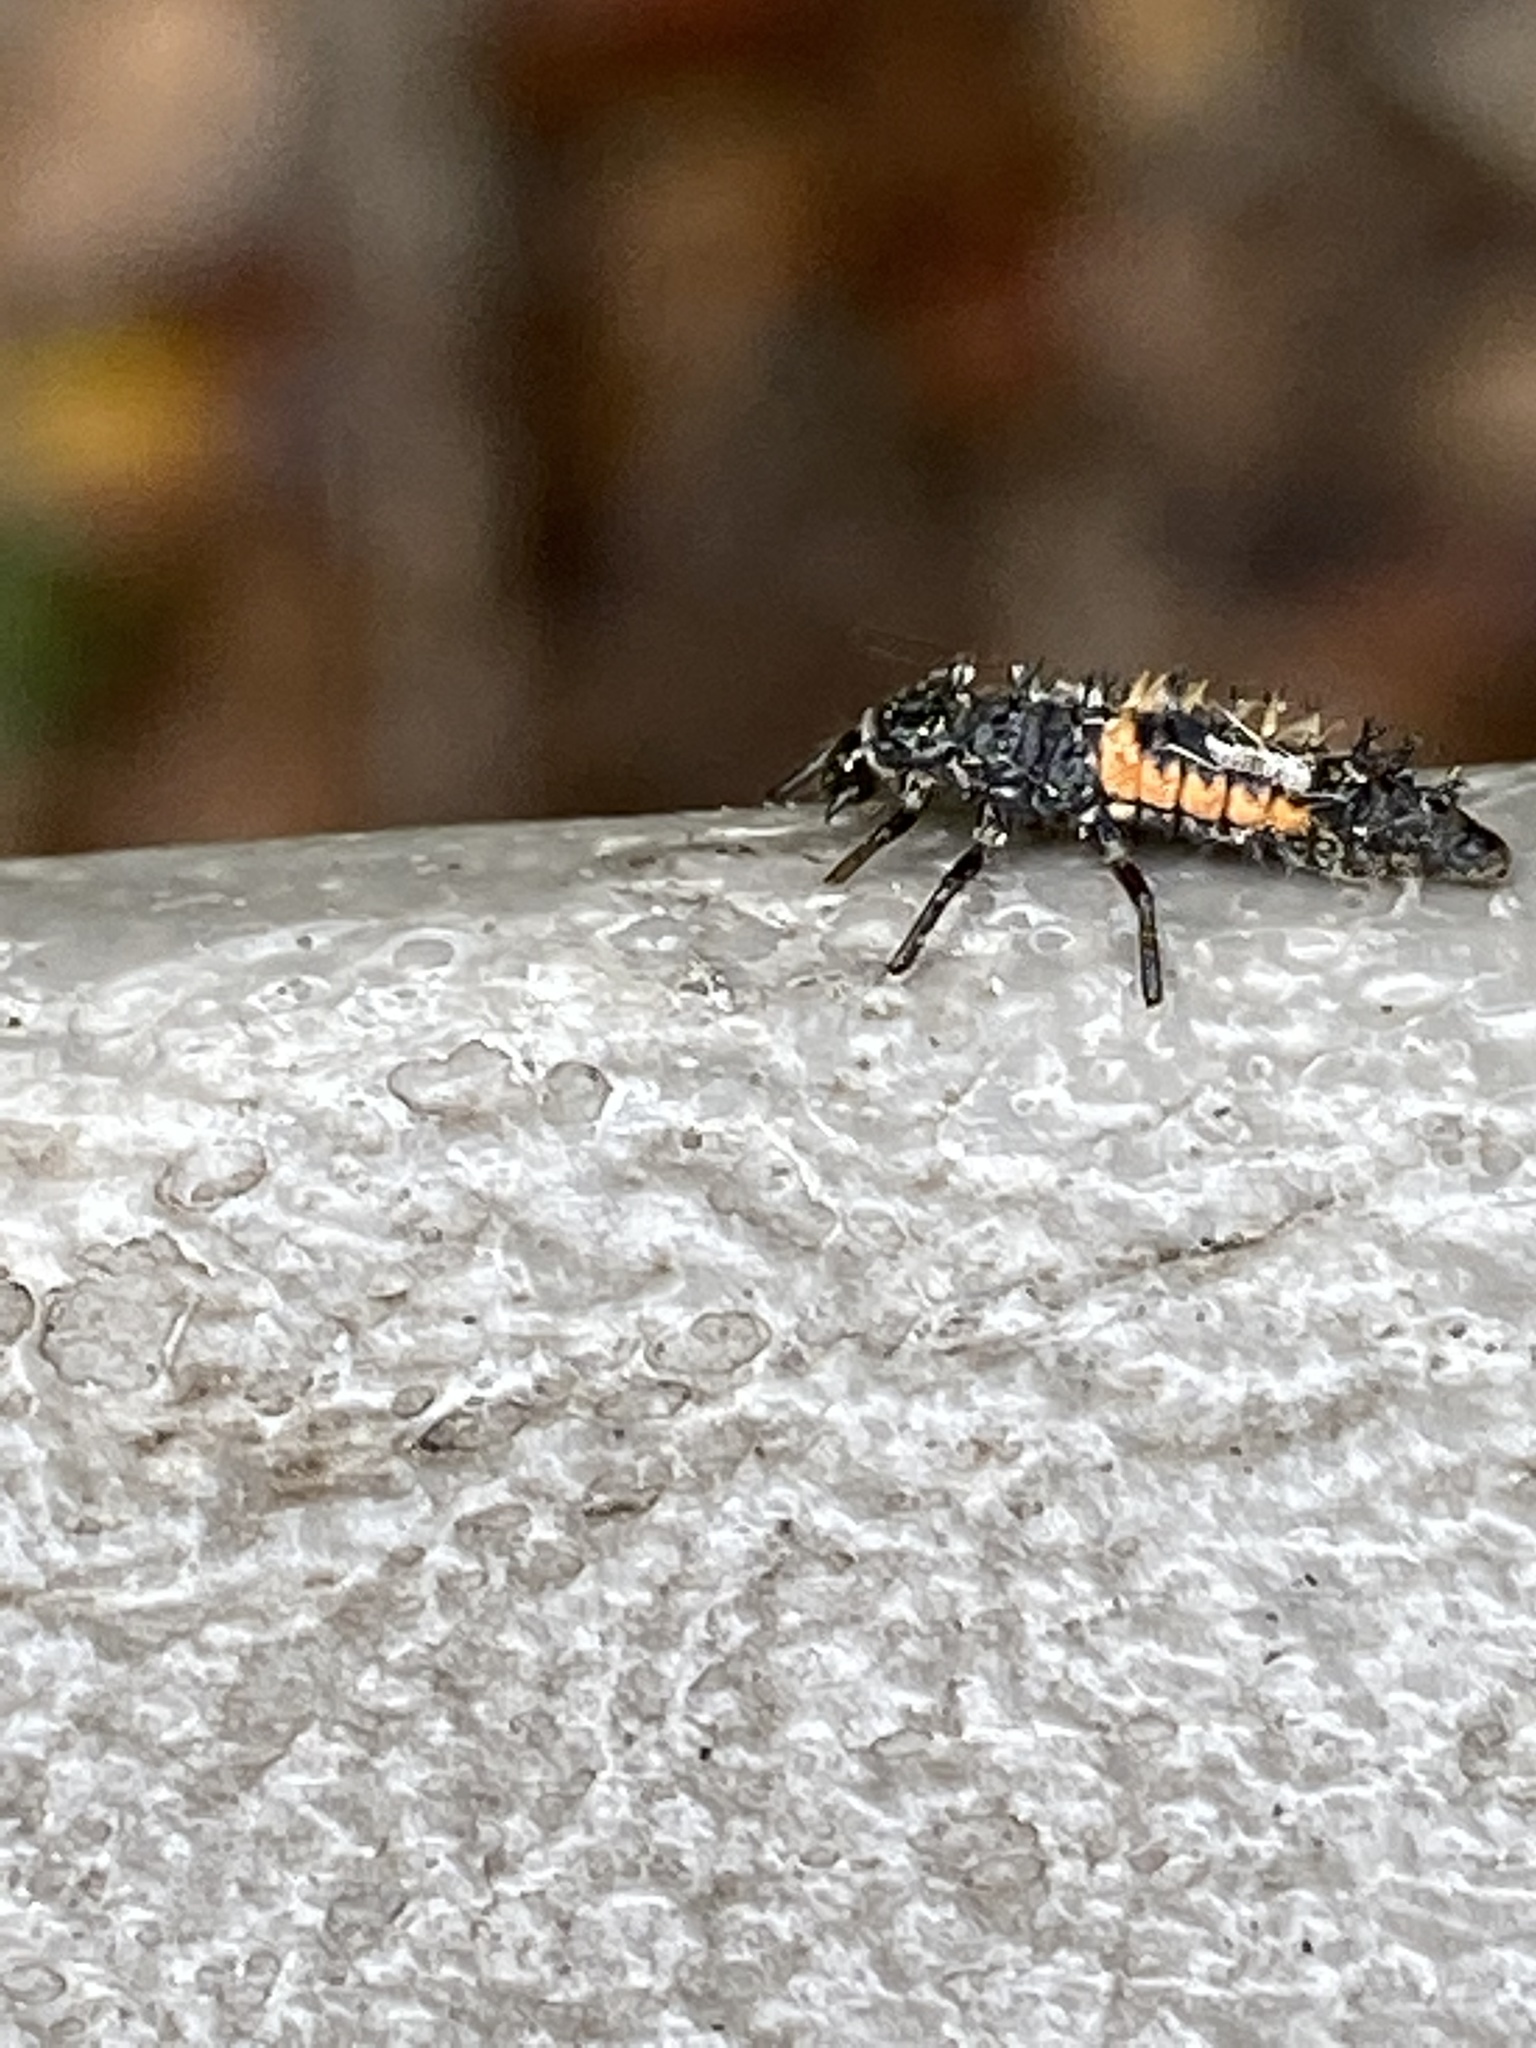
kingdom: Animalia
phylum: Arthropoda
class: Insecta
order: Coleoptera
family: Coccinellidae
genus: Harmonia
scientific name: Harmonia axyridis
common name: Harlequin ladybird
